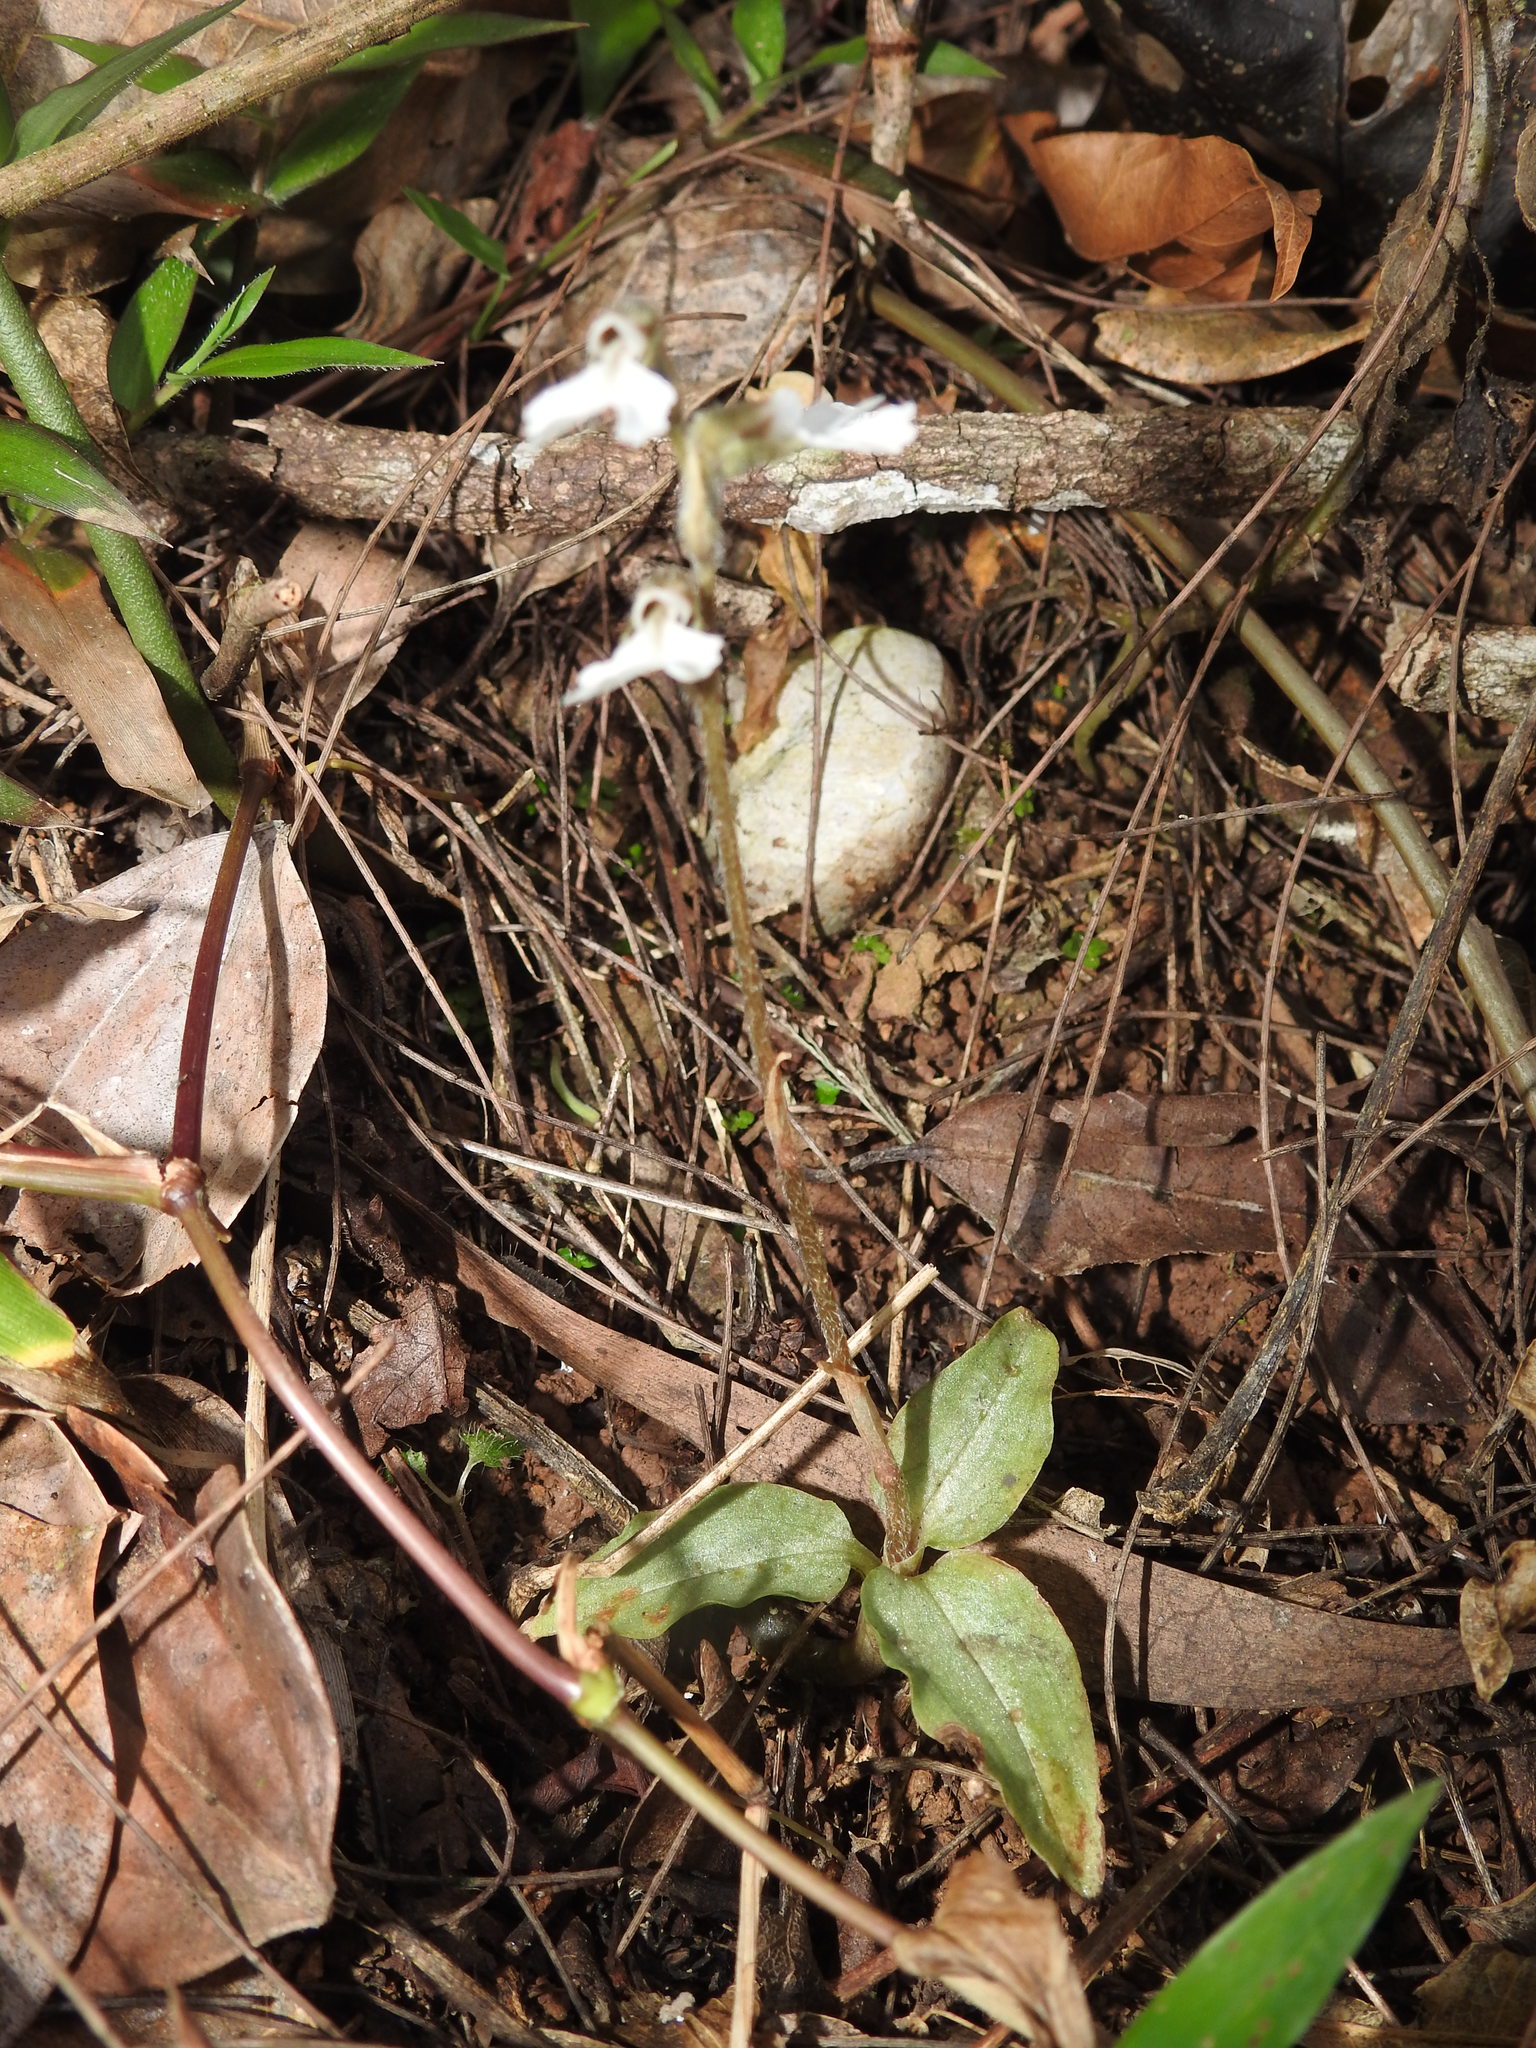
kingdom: Plantae
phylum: Tracheophyta
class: Liliopsida
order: Asparagales
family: Orchidaceae
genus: Zeuxine
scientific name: Zeuxine longilabris
